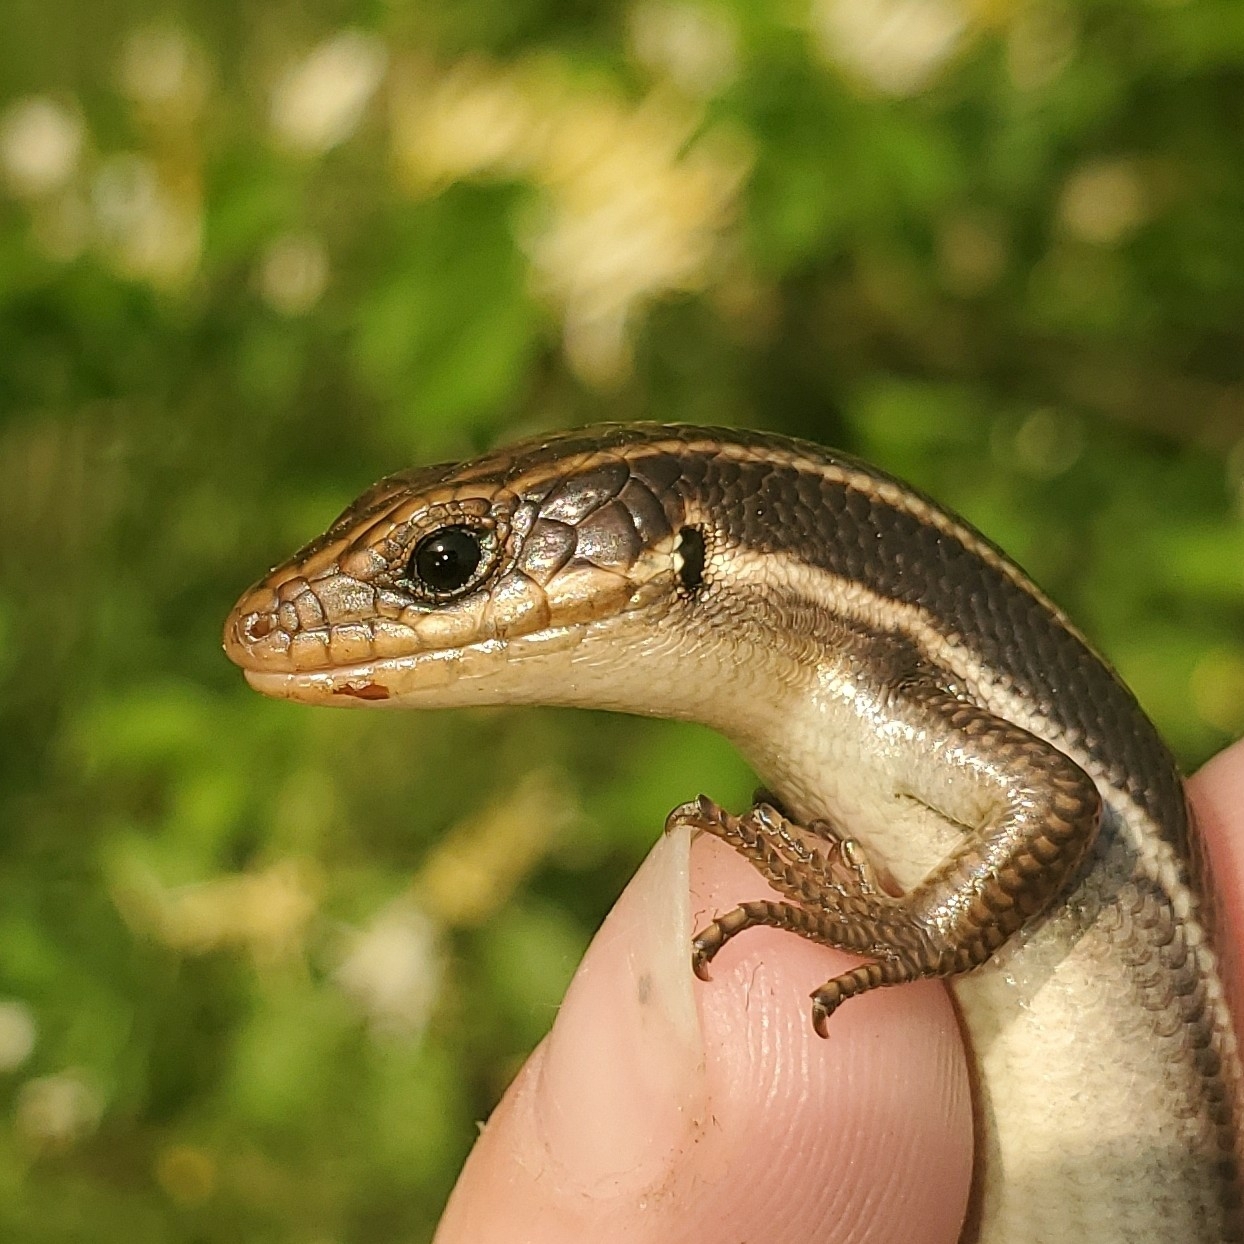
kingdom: Animalia
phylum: Chordata
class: Squamata
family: Scincidae
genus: Plestiodon
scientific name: Plestiodon fasciatus
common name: Five-lined skink
